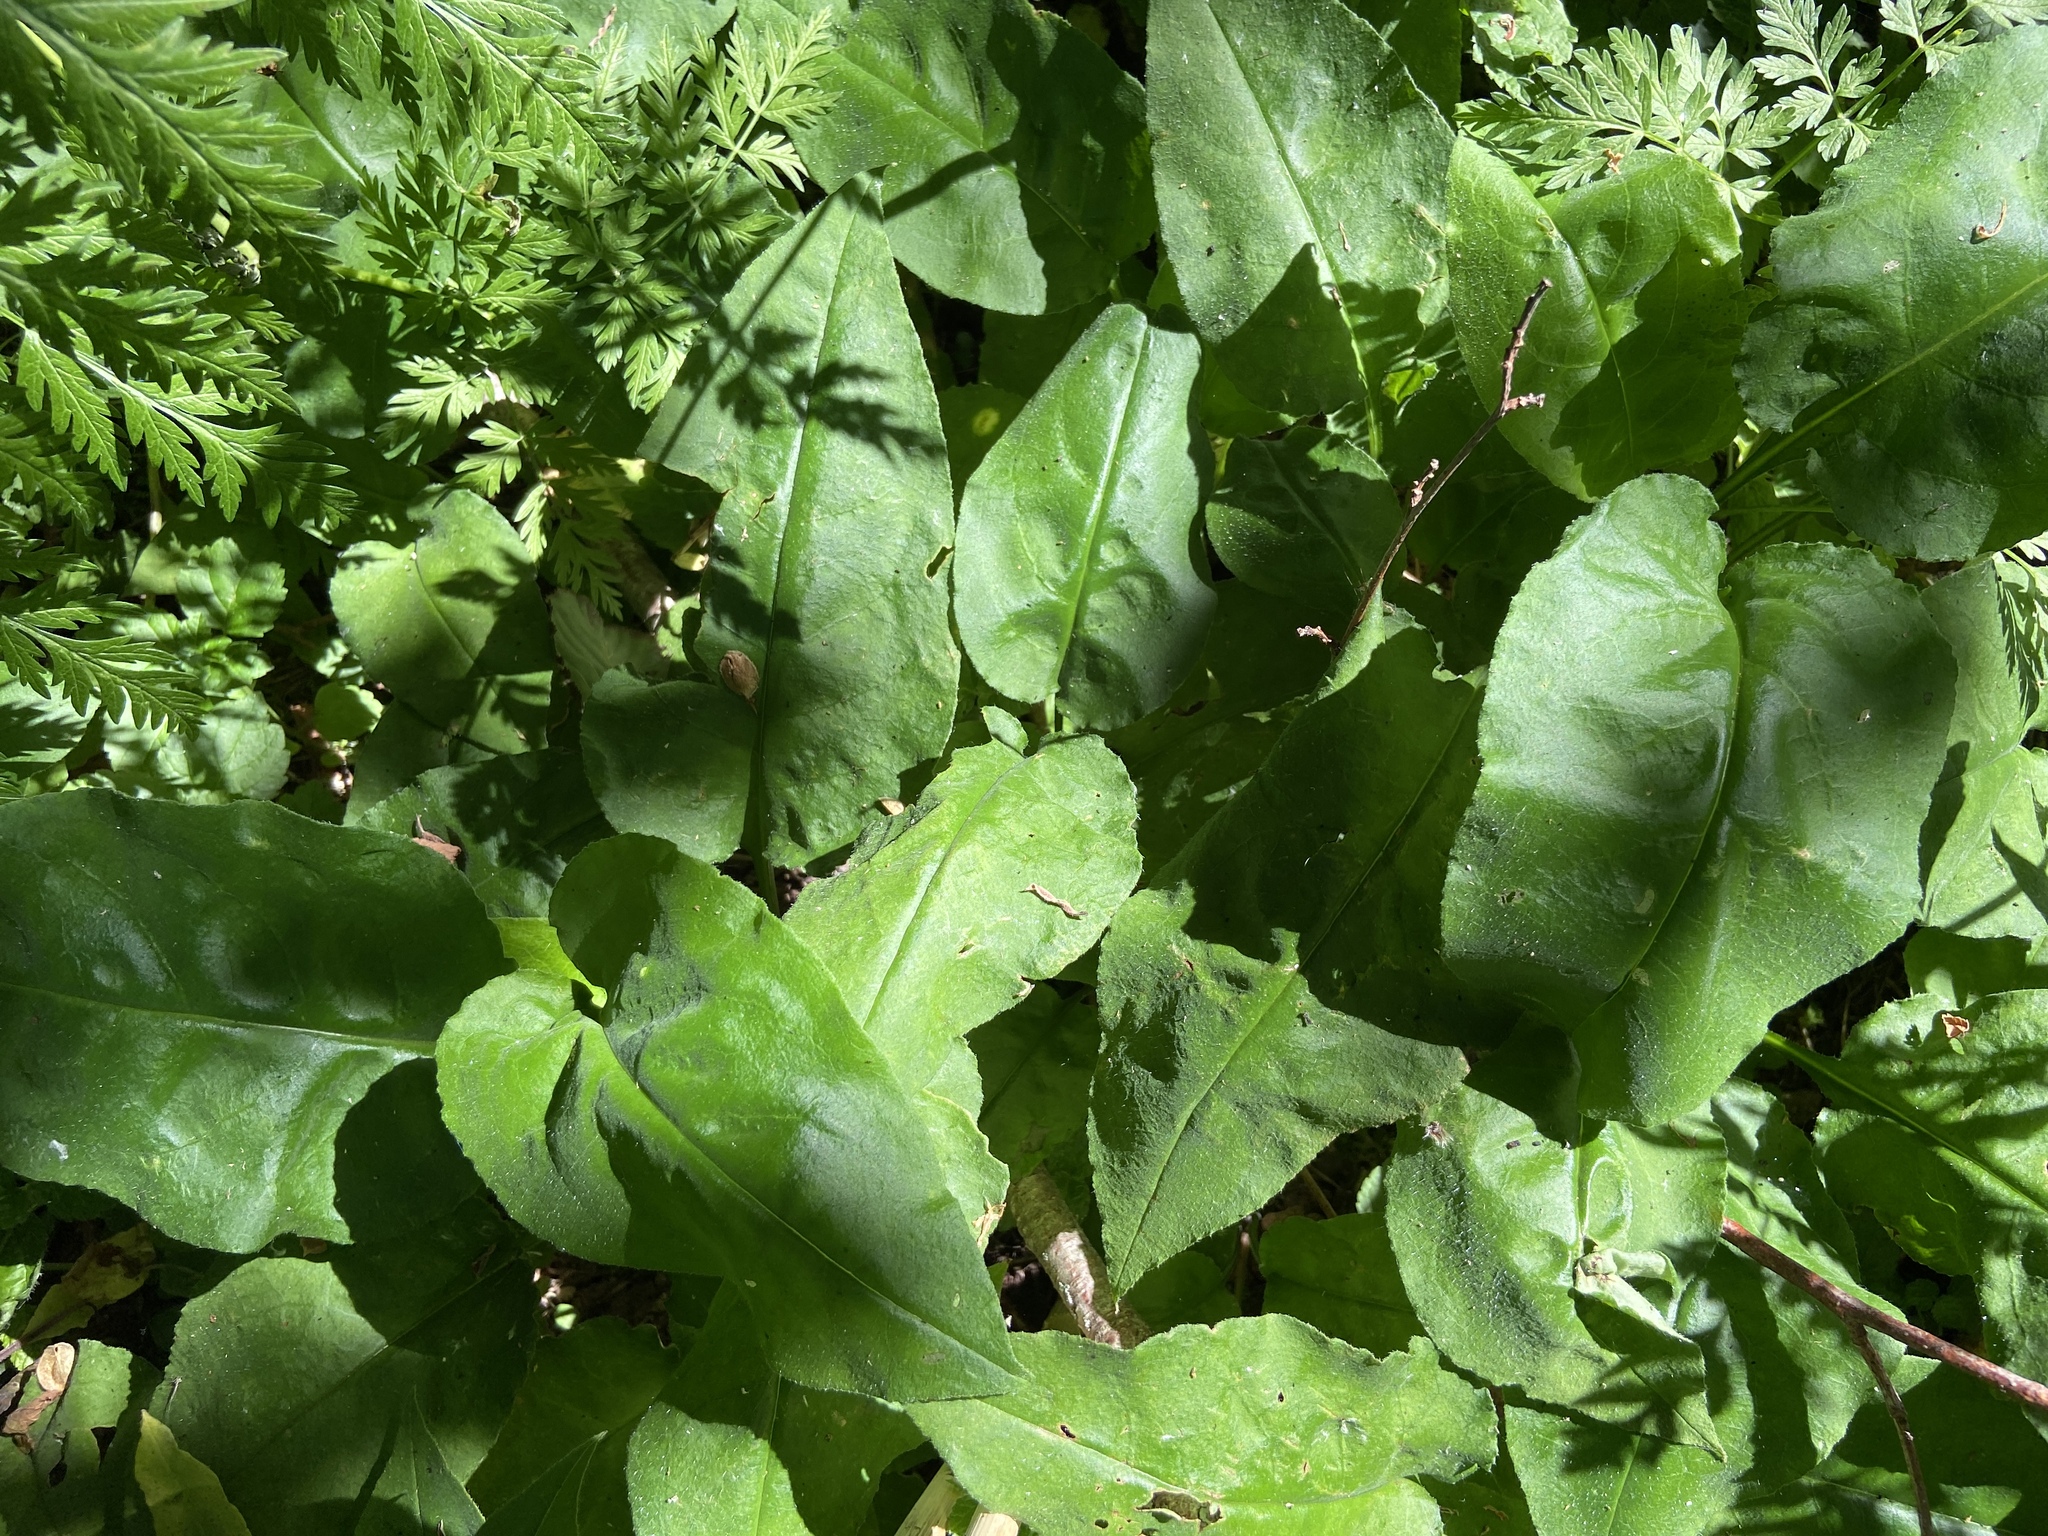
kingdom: Plantae
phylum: Tracheophyta
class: Magnoliopsida
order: Boraginales
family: Boraginaceae
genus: Pulmonaria
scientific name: Pulmonaria obscura
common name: Suffolk lungwort
